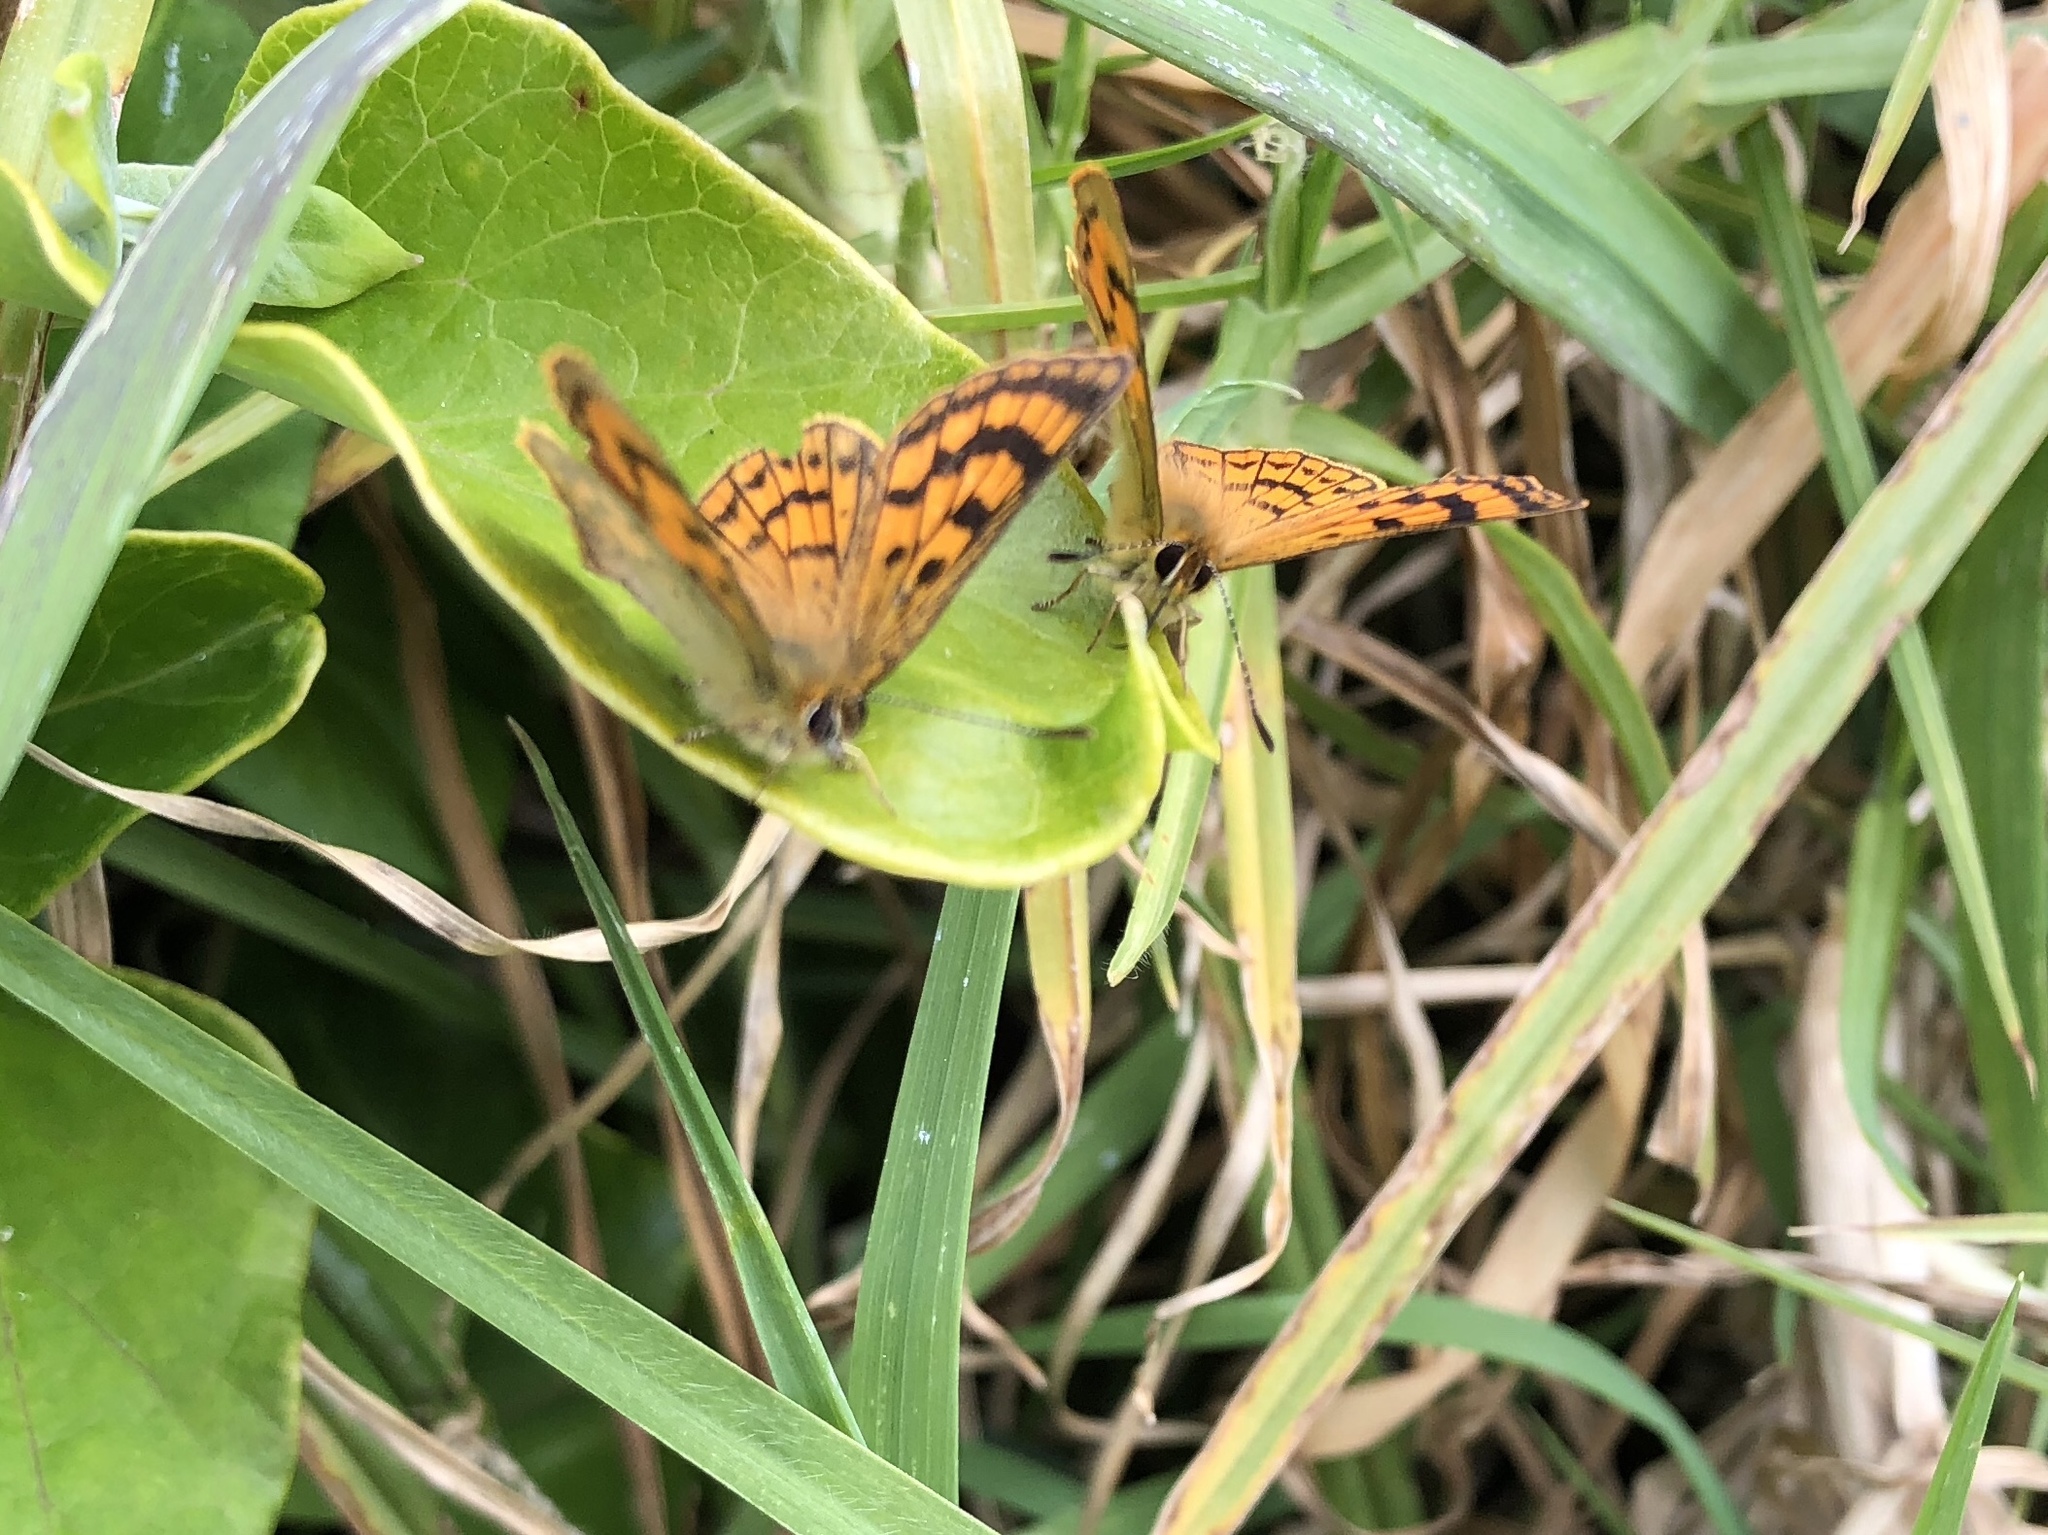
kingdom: Animalia
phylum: Arthropoda
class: Insecta
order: Lepidoptera
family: Lycaenidae
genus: Lycaena
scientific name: Lycaena salustius
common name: North island coastal copper
